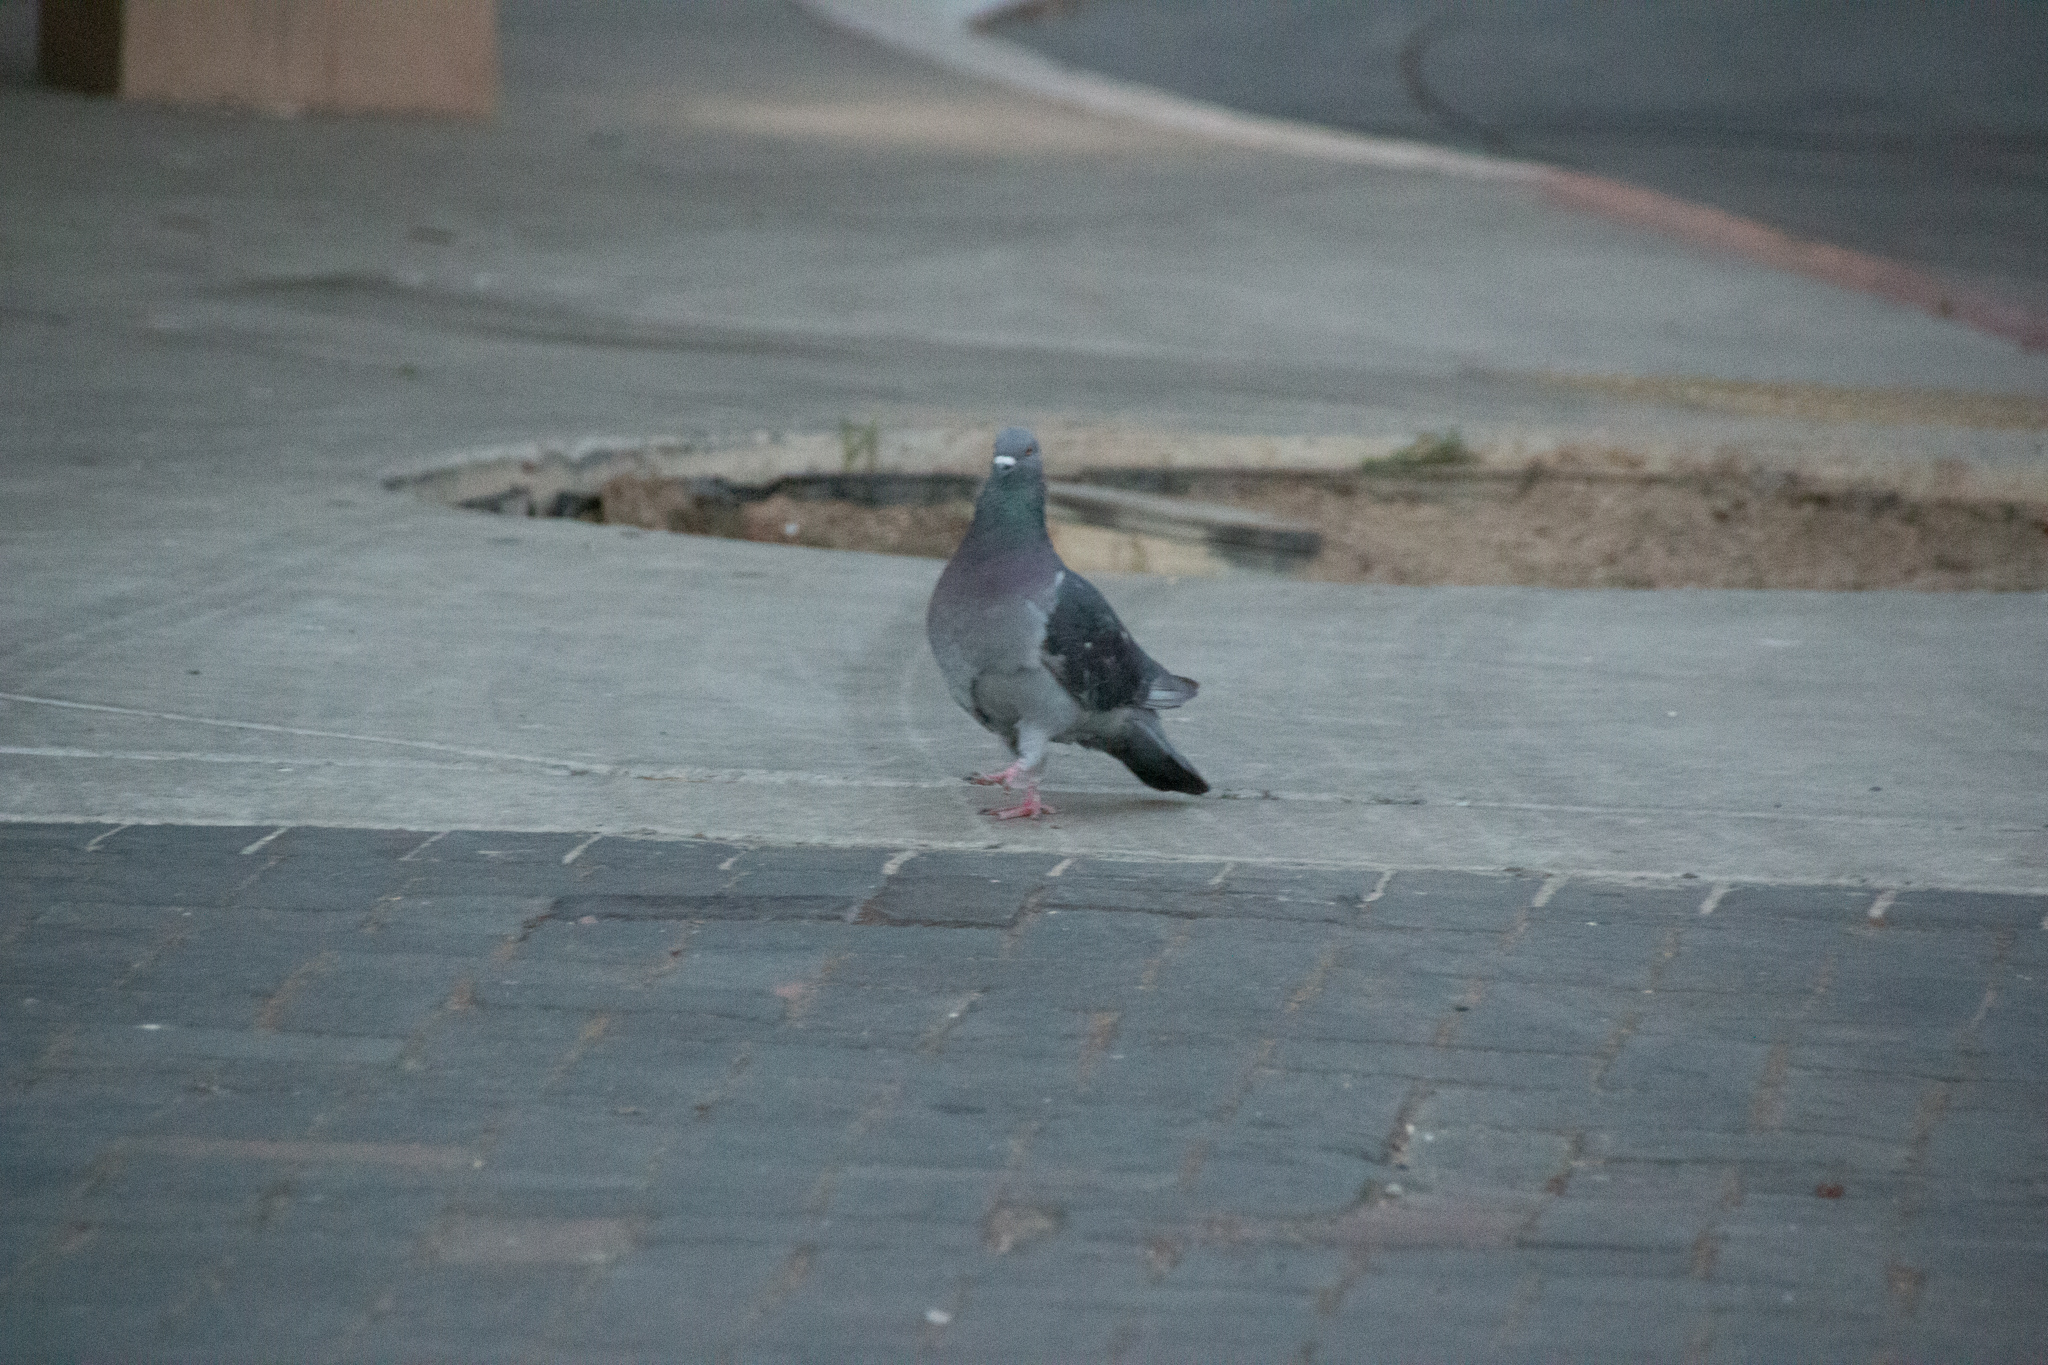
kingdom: Animalia
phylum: Chordata
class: Aves
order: Columbiformes
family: Columbidae
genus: Columba
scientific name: Columba livia
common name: Rock pigeon
